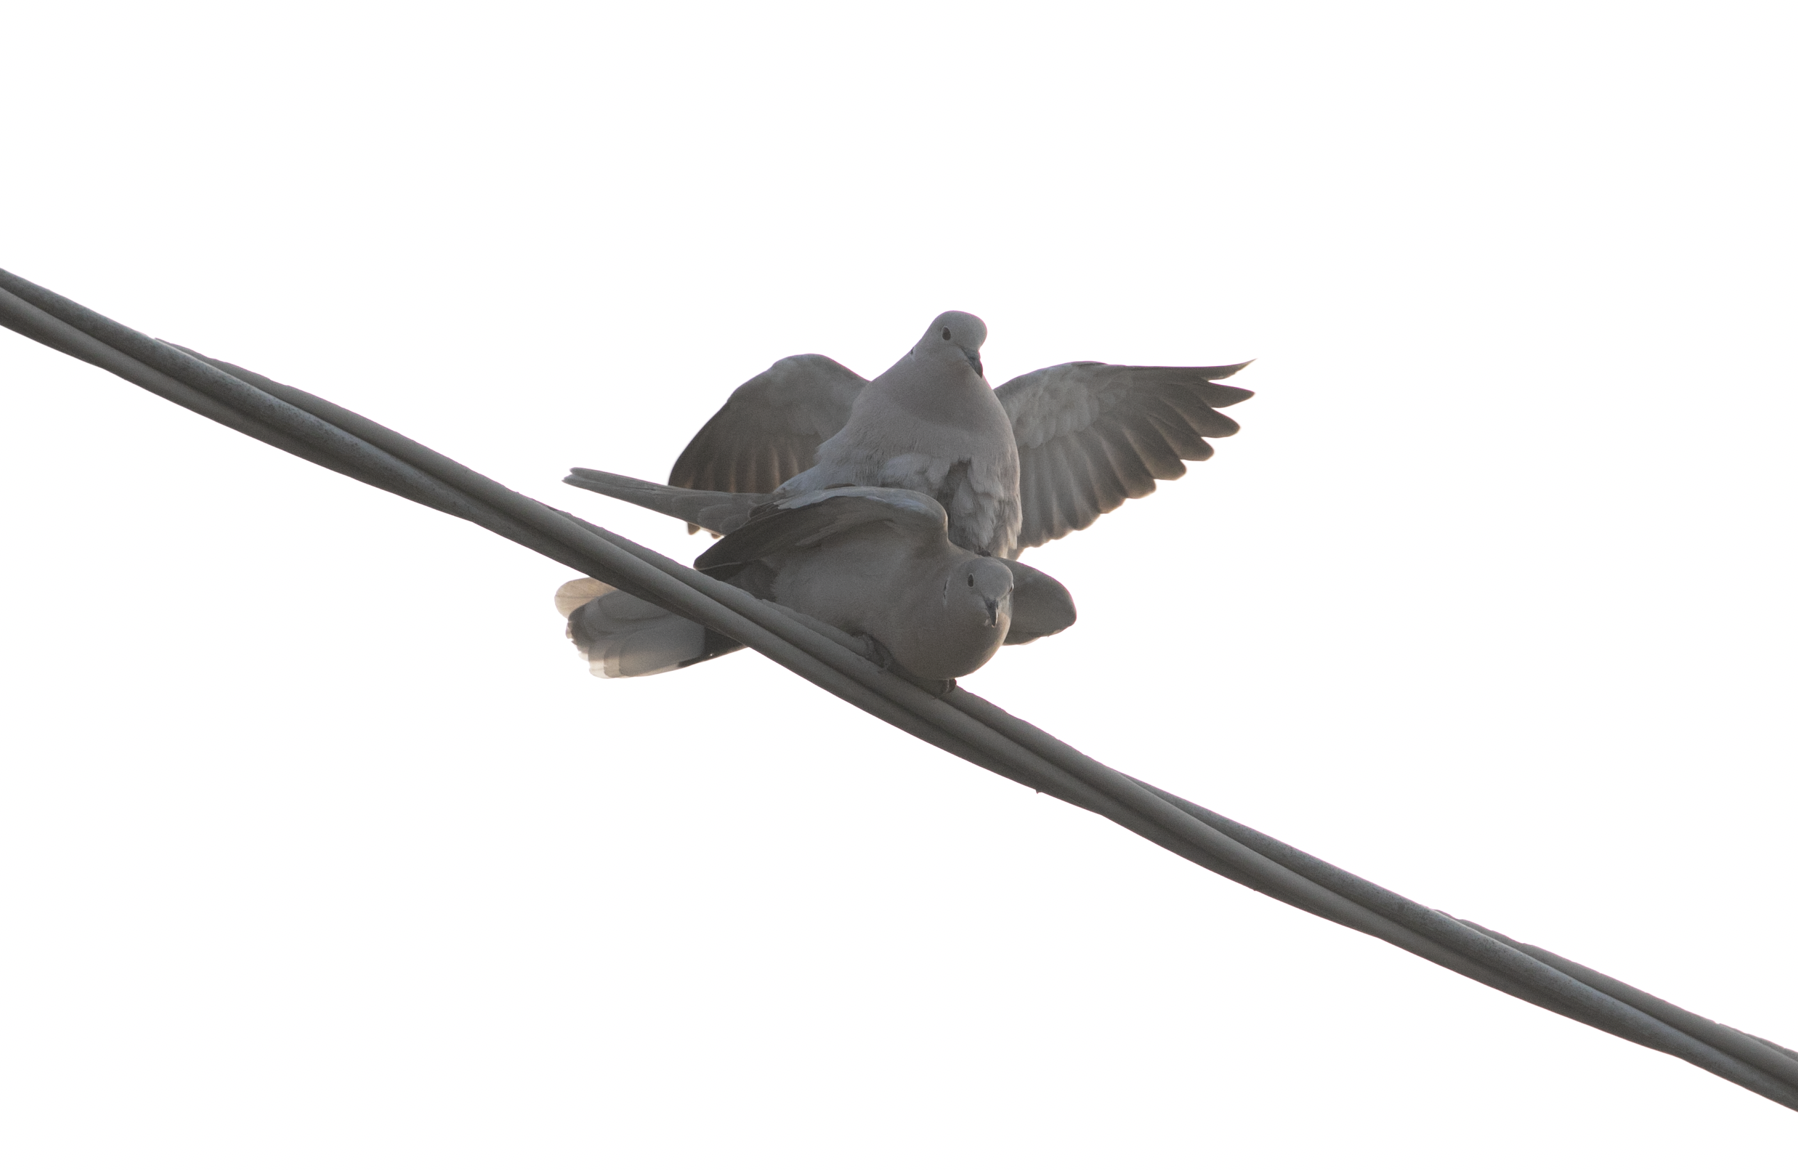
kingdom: Animalia
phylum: Chordata
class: Aves
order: Columbiformes
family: Columbidae
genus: Streptopelia
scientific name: Streptopelia decaocto
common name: Eurasian collared dove
